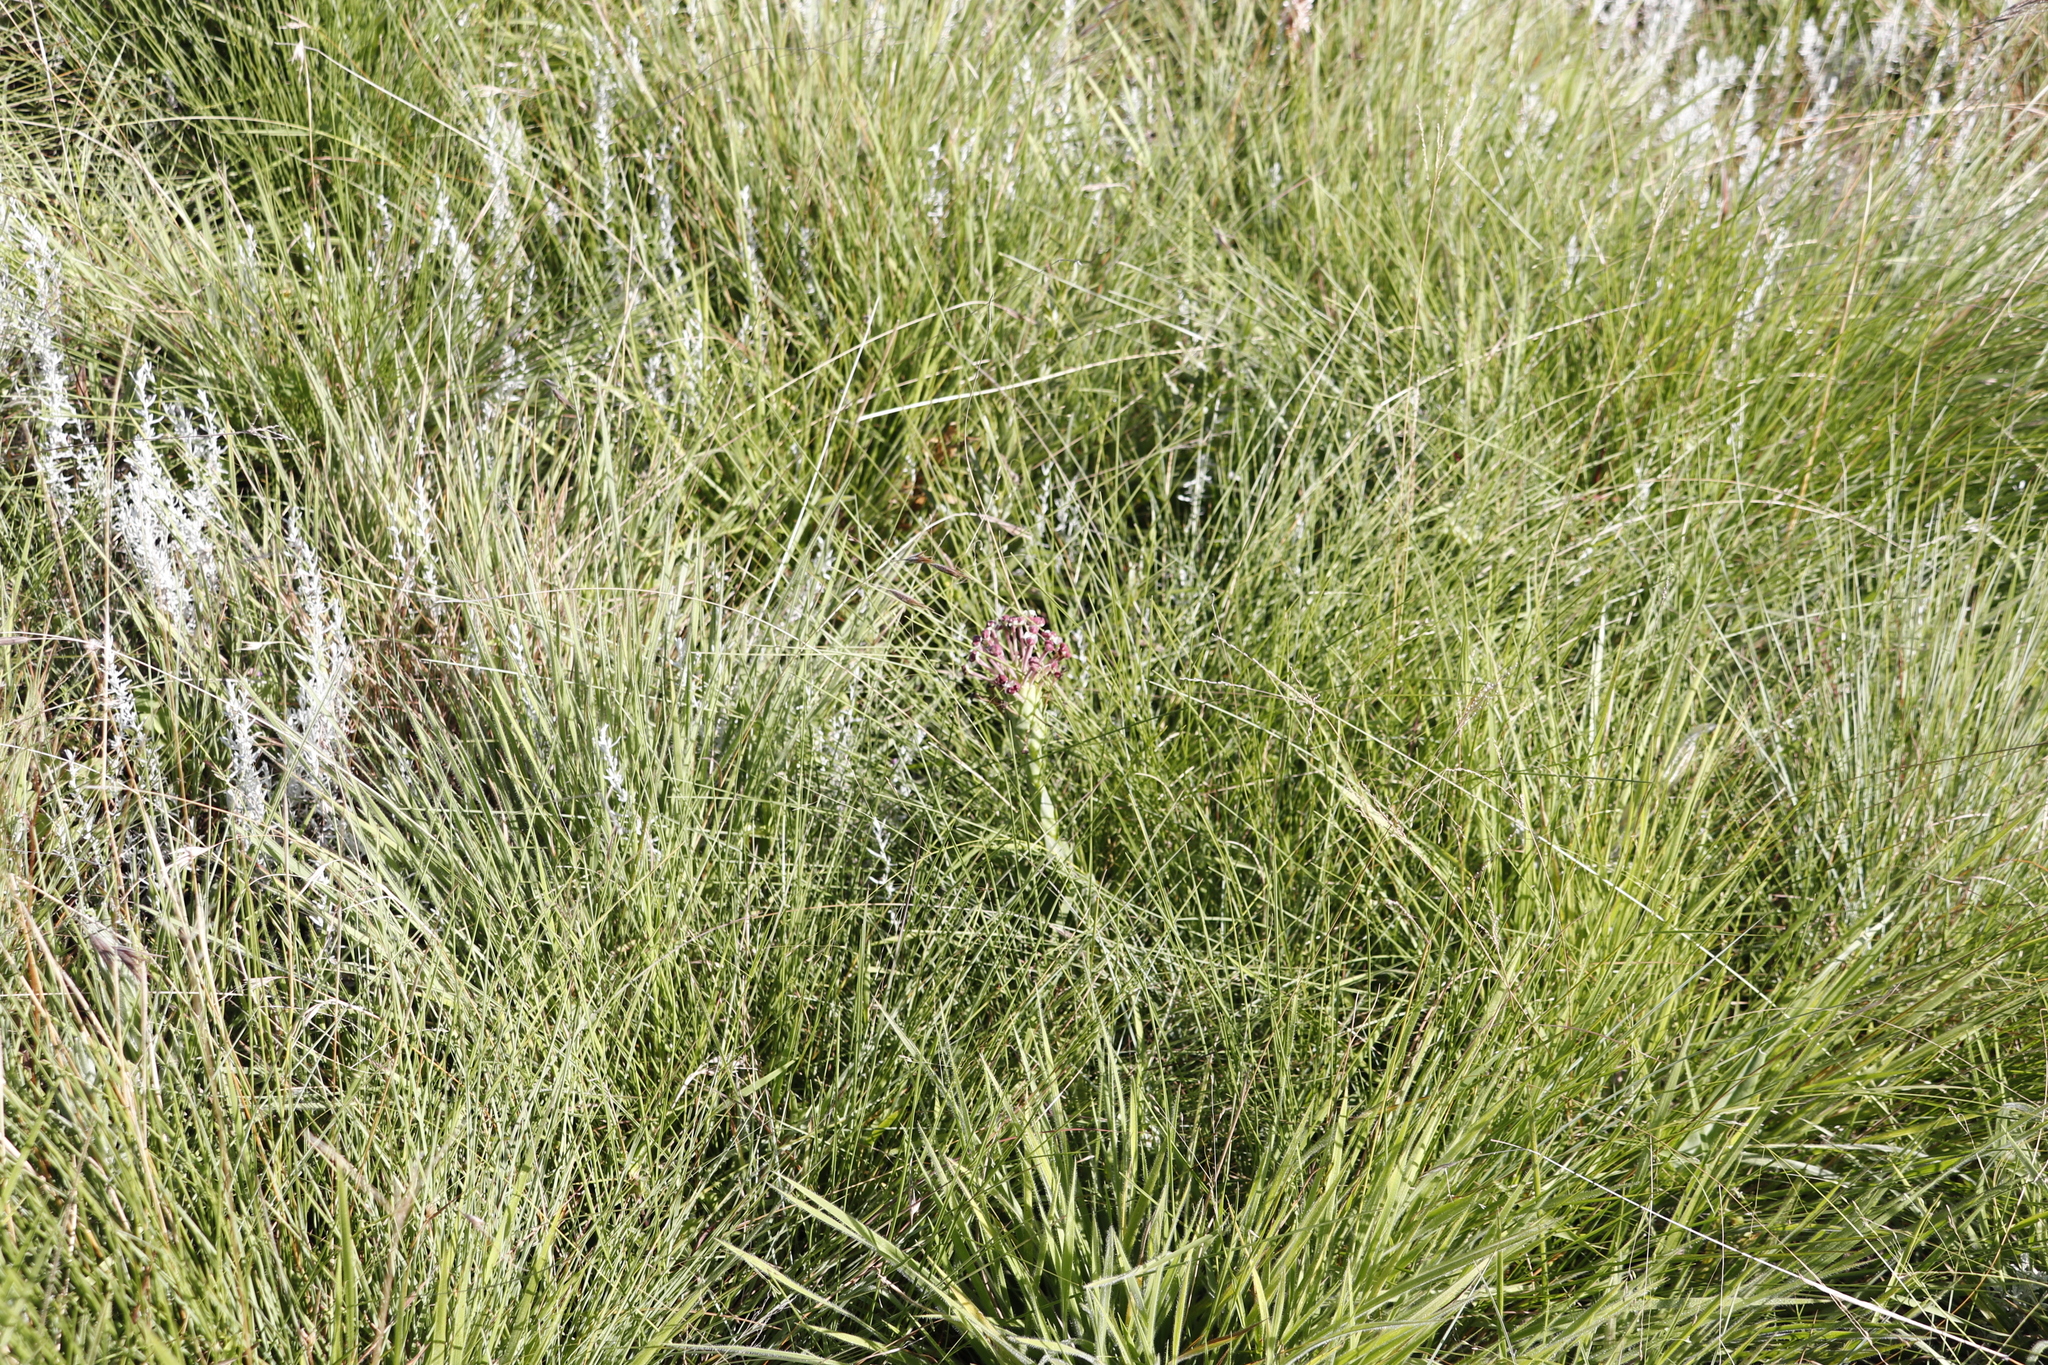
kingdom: Plantae
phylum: Tracheophyta
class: Magnoliopsida
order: Lamiales
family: Scrophulariaceae
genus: Zaluzianskya
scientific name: Zaluzianskya natalensis
